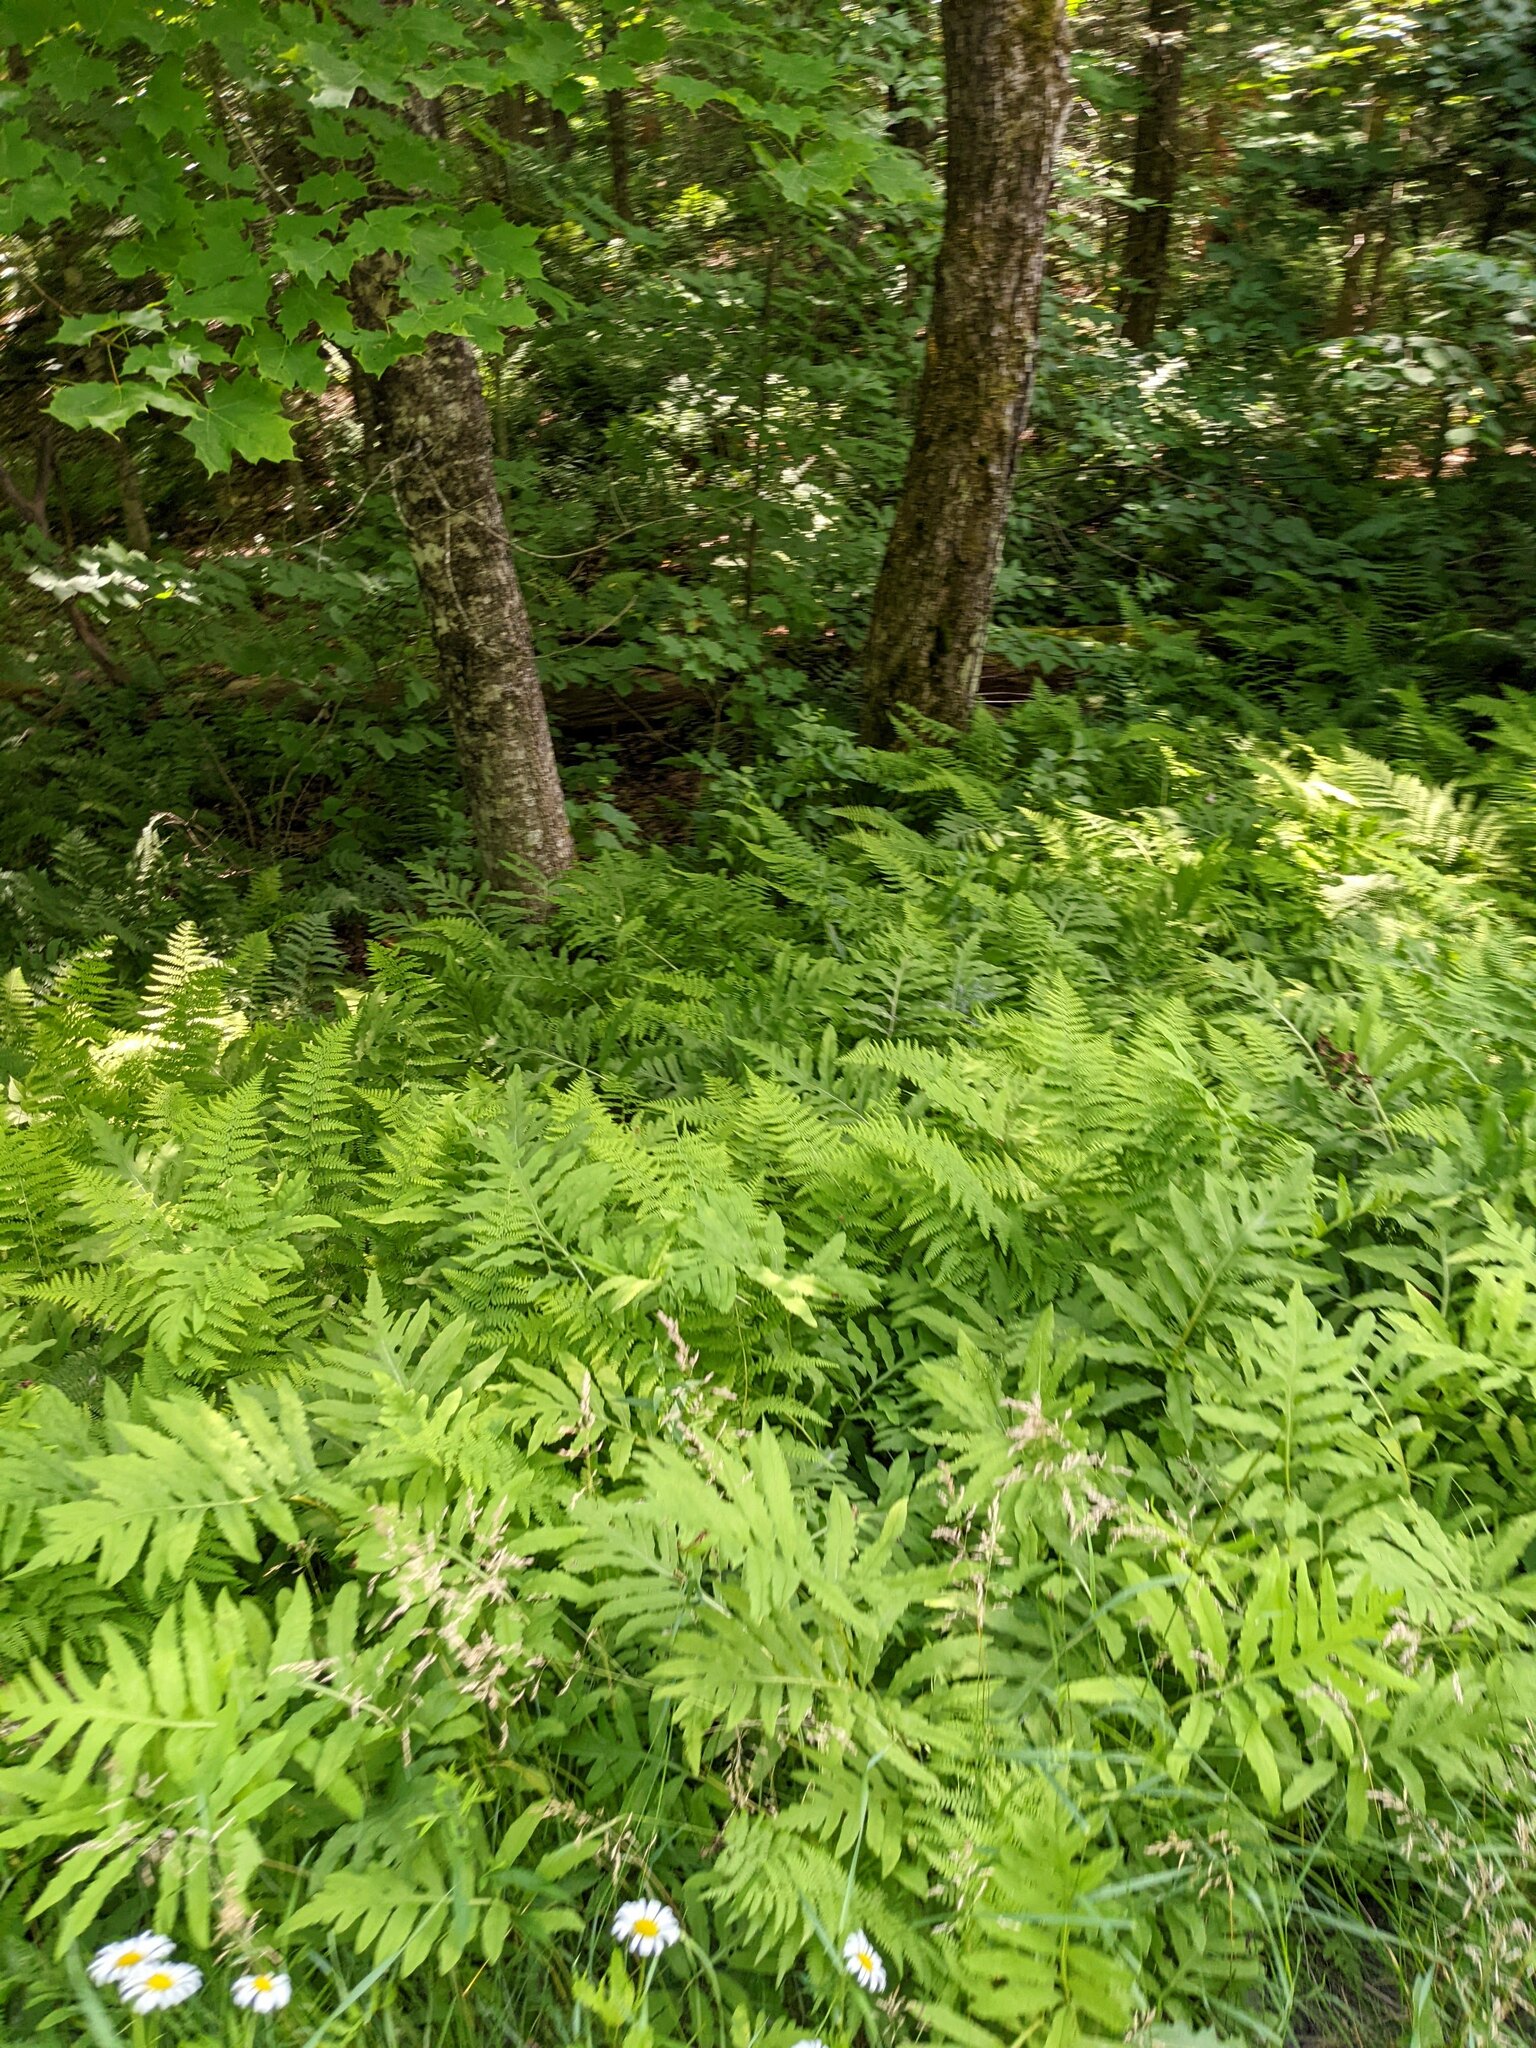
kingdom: Plantae
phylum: Tracheophyta
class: Polypodiopsida
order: Polypodiales
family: Onocleaceae
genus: Onoclea
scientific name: Onoclea sensibilis
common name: Sensitive fern
